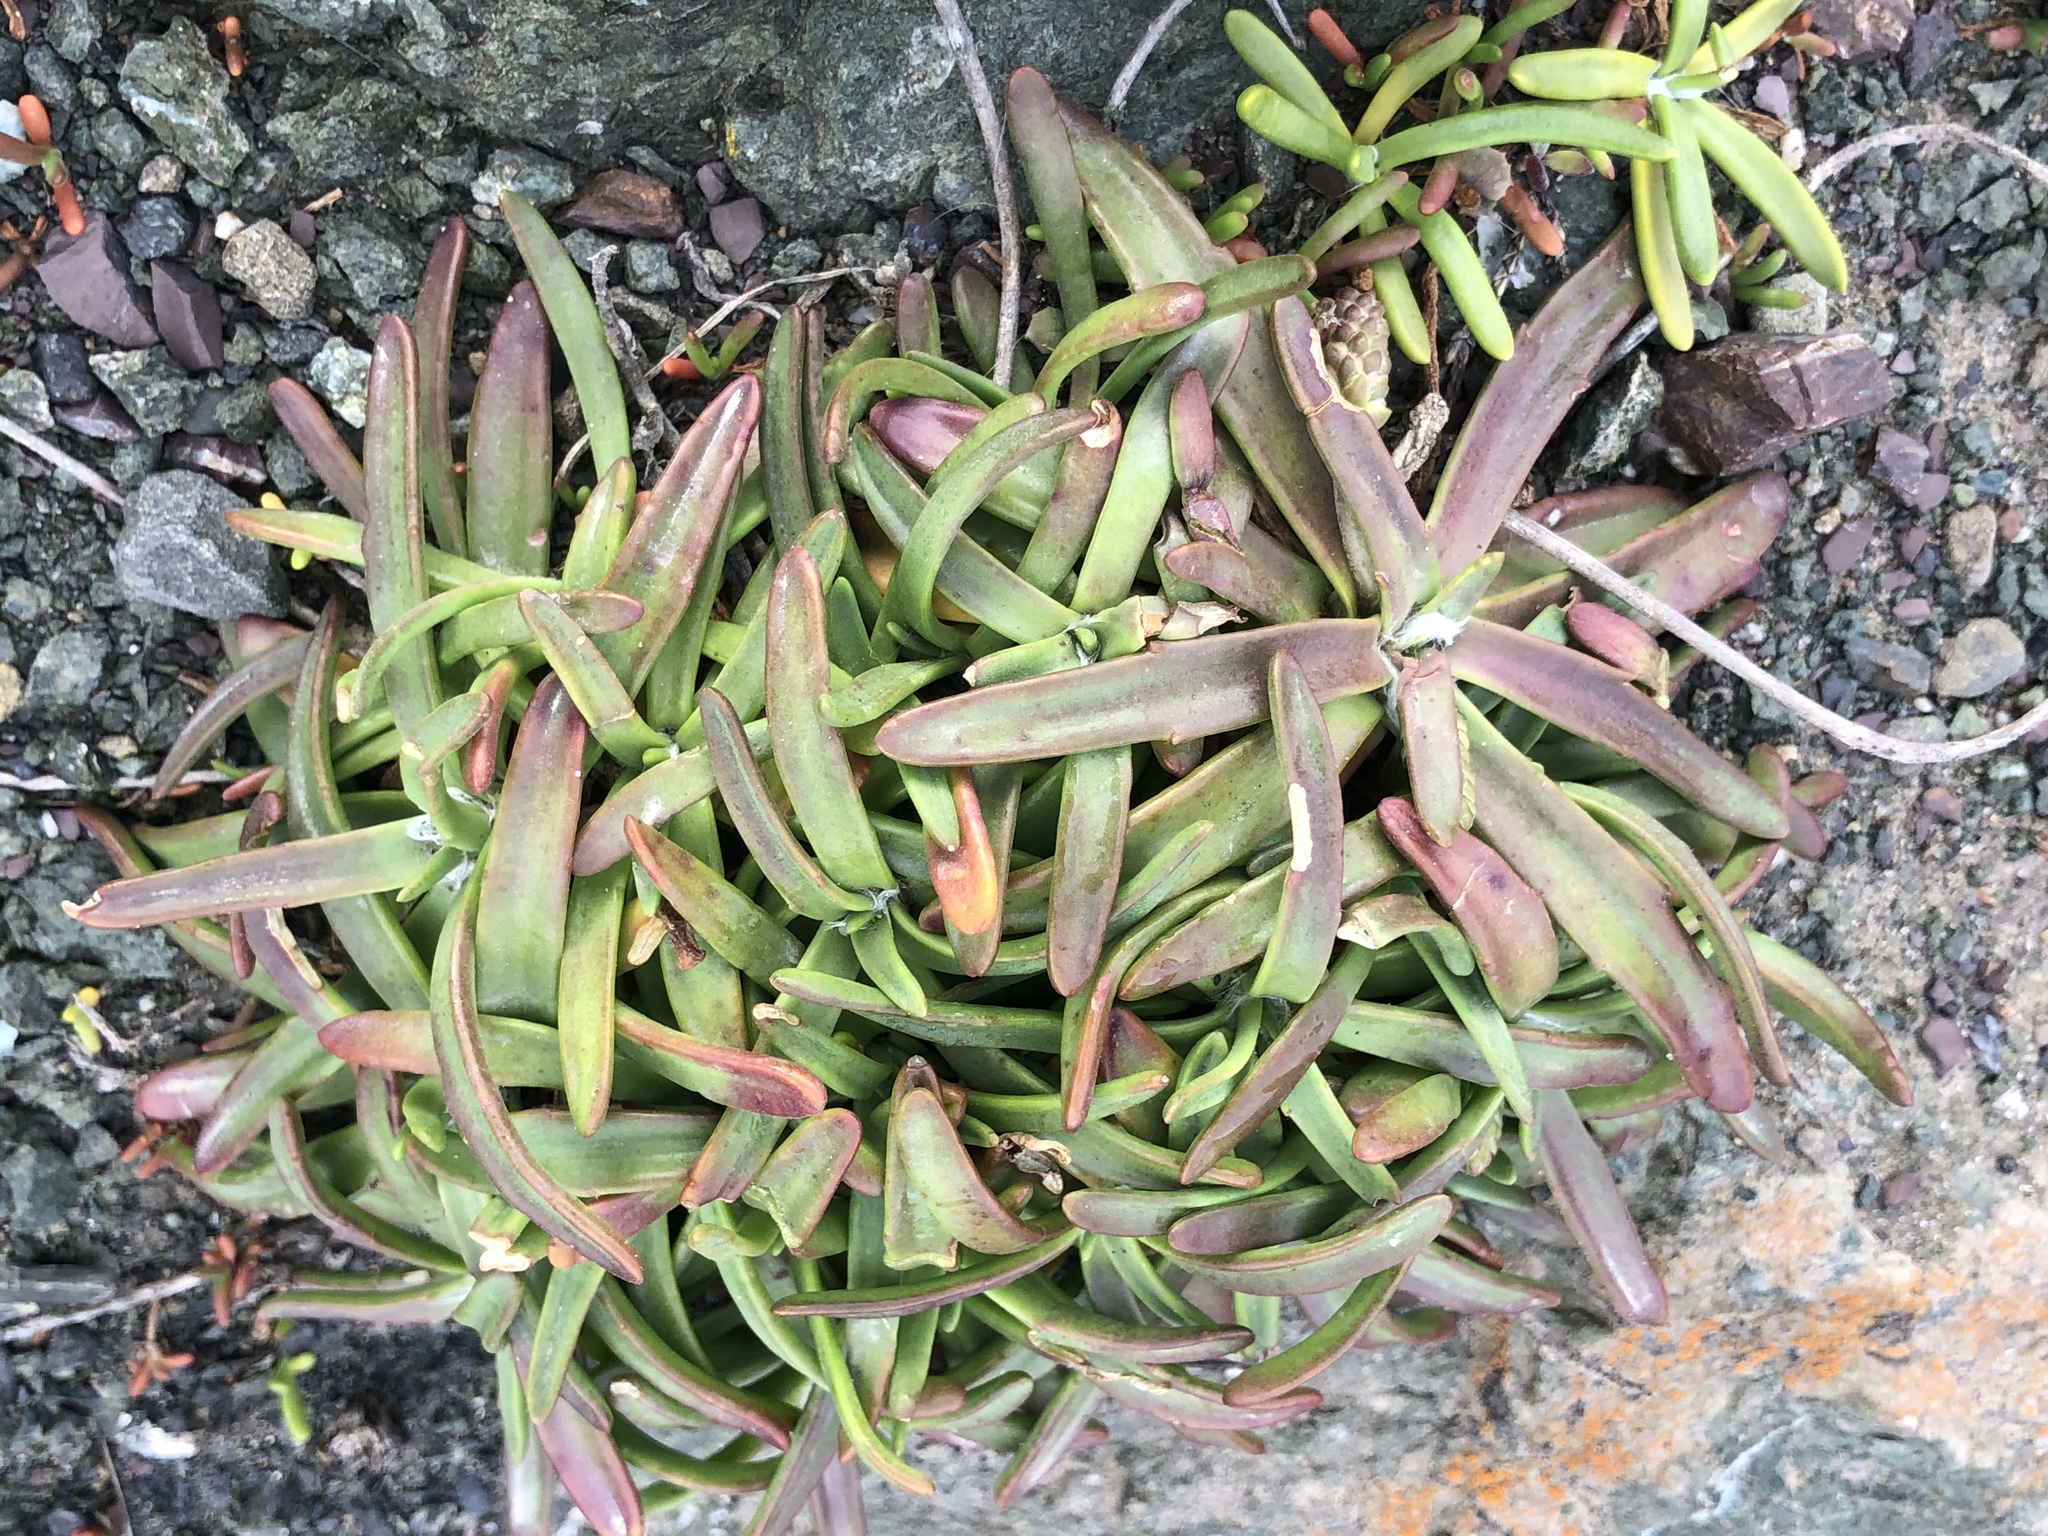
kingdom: Plantae
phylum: Tracheophyta
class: Magnoliopsida
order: Lamiales
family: Plantaginaceae
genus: Plantago
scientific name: Plantago maritima
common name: Sea plantain
